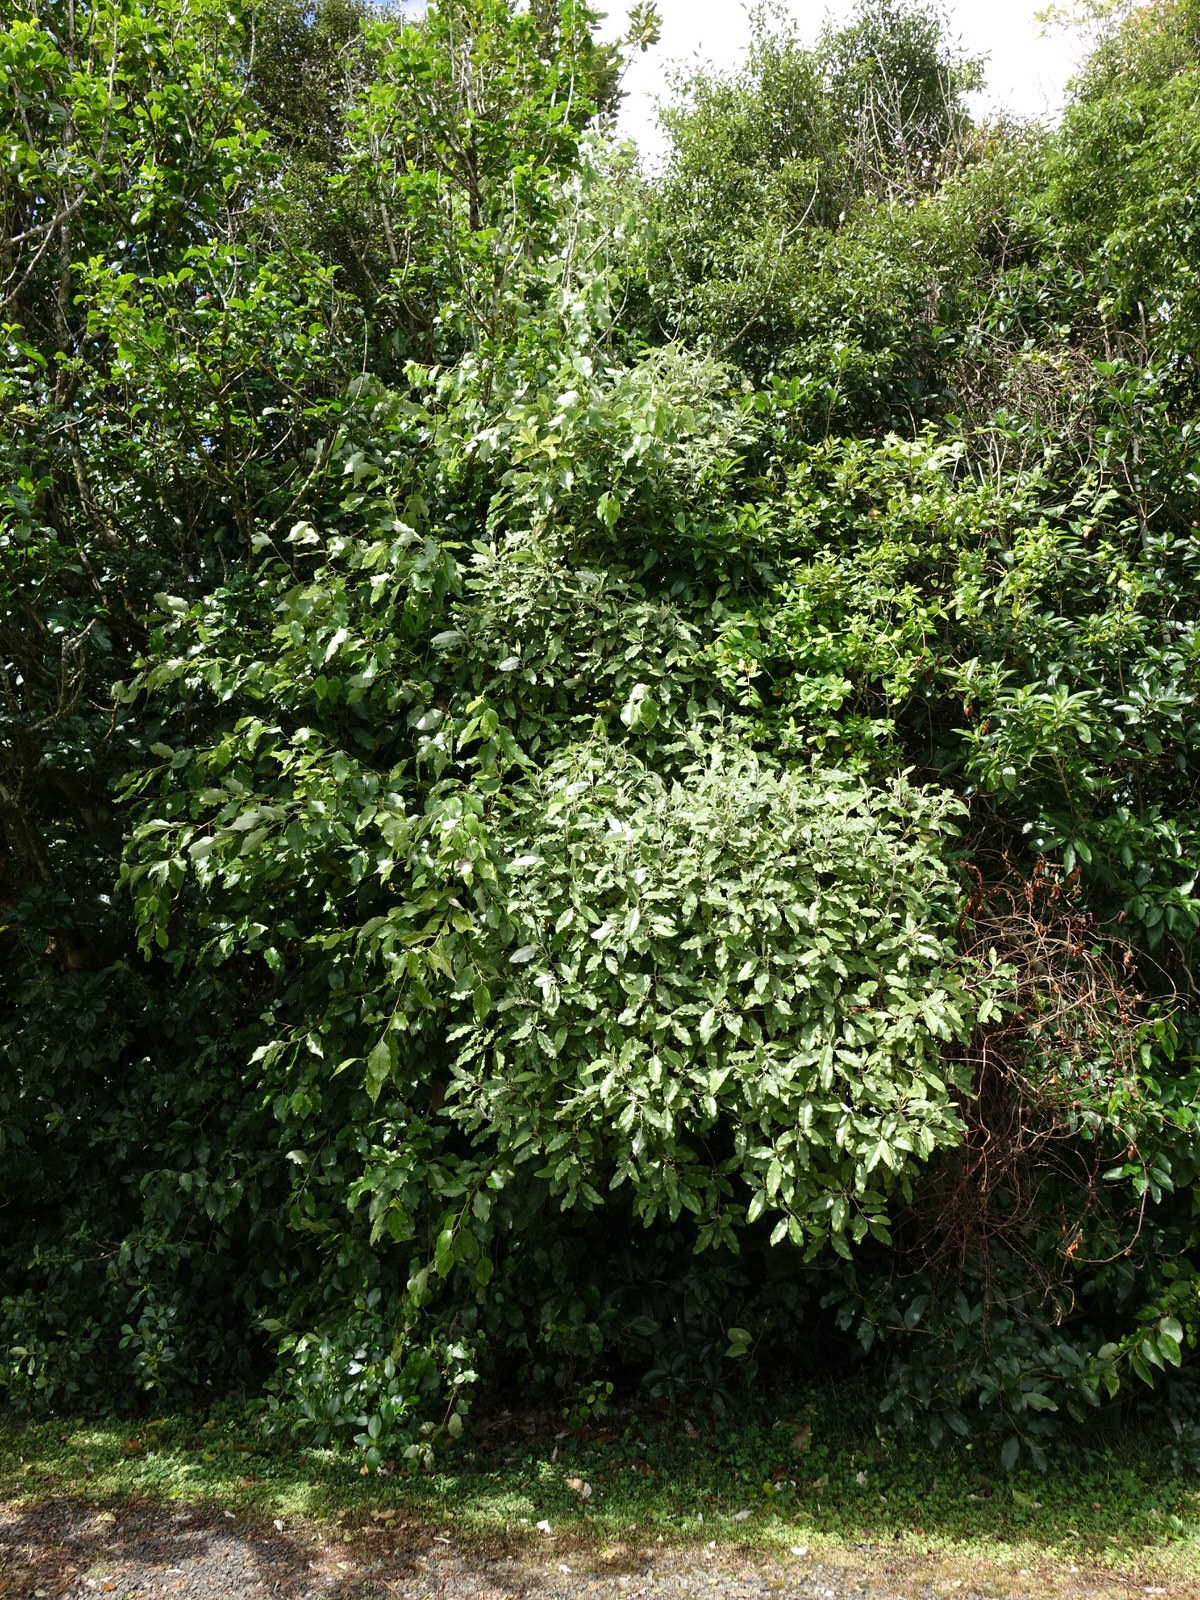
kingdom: Plantae
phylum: Tracheophyta
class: Magnoliopsida
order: Asterales
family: Asteraceae
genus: Olearia
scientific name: Olearia albida
